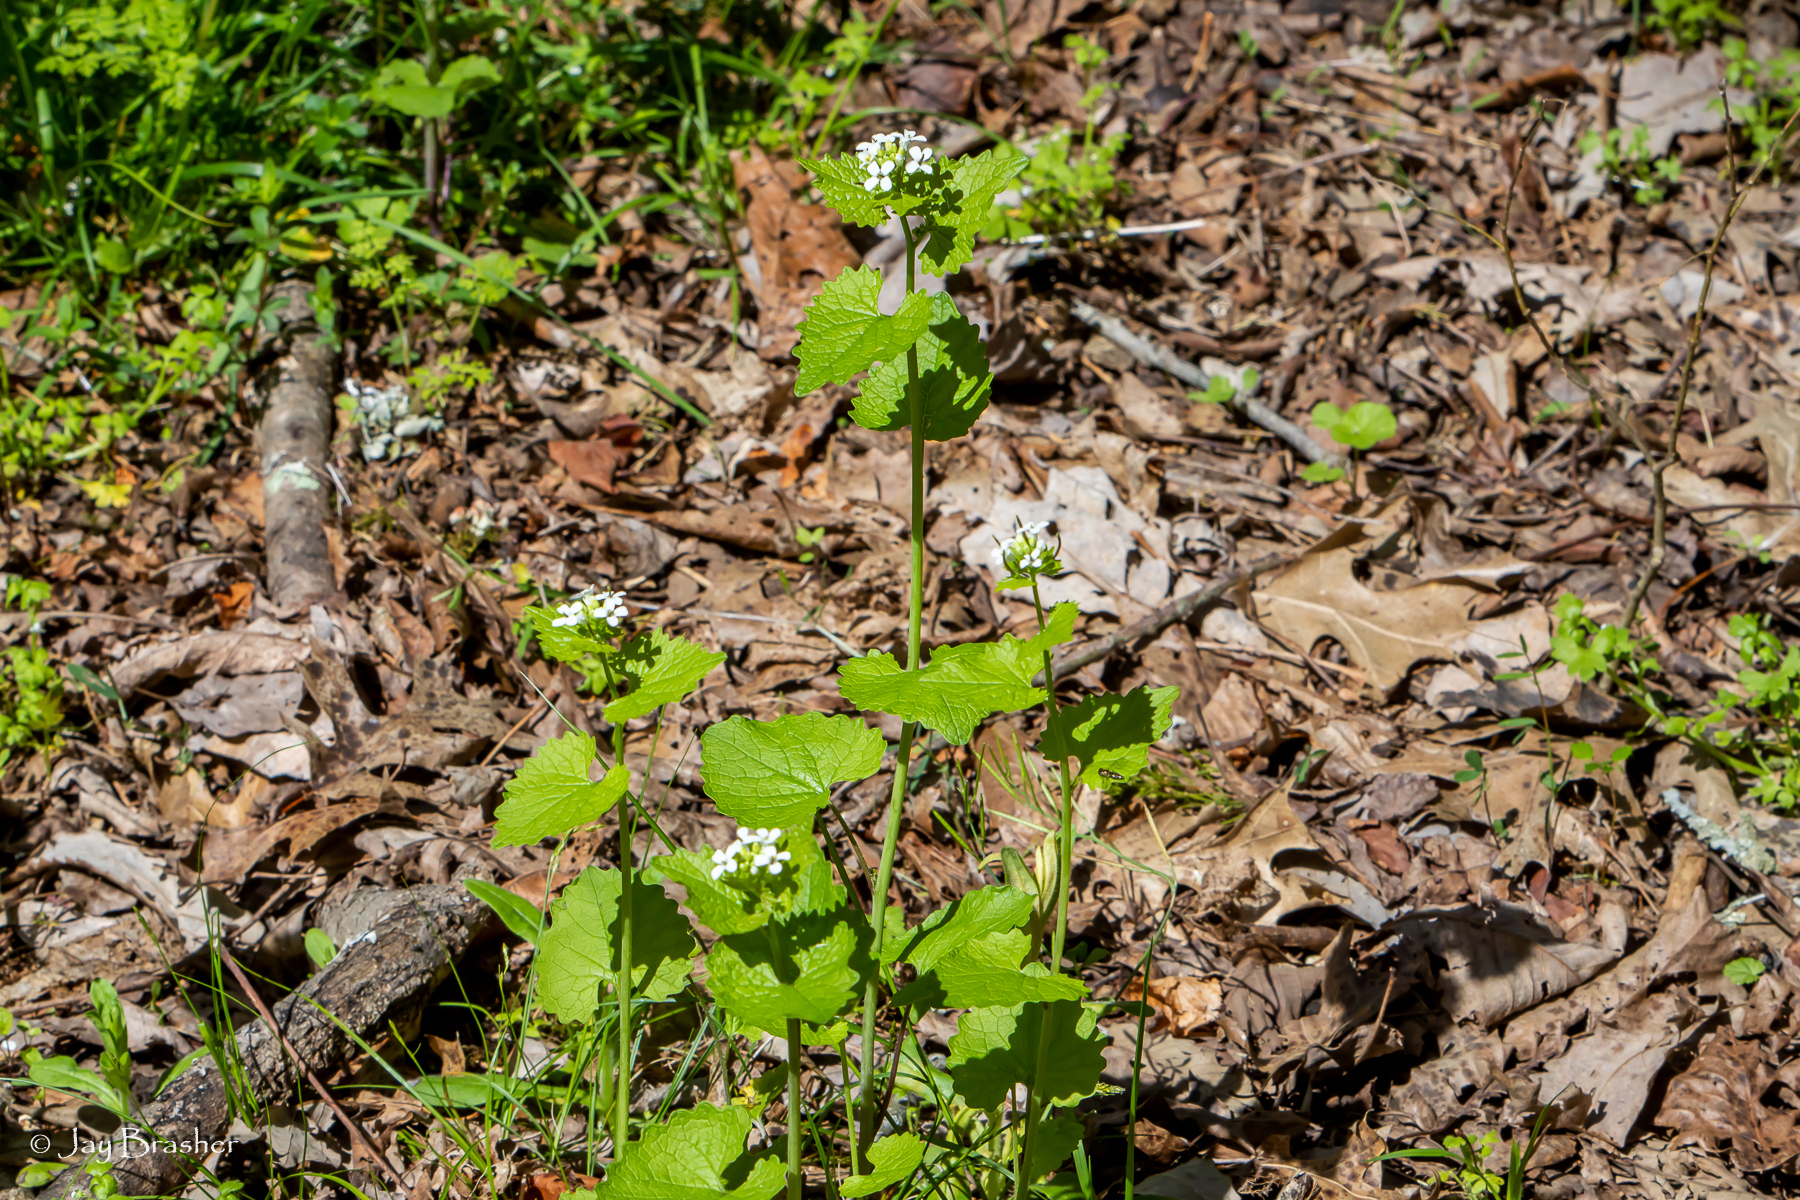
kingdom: Plantae
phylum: Tracheophyta
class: Magnoliopsida
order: Brassicales
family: Brassicaceae
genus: Alliaria
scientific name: Alliaria petiolata
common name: Garlic mustard
